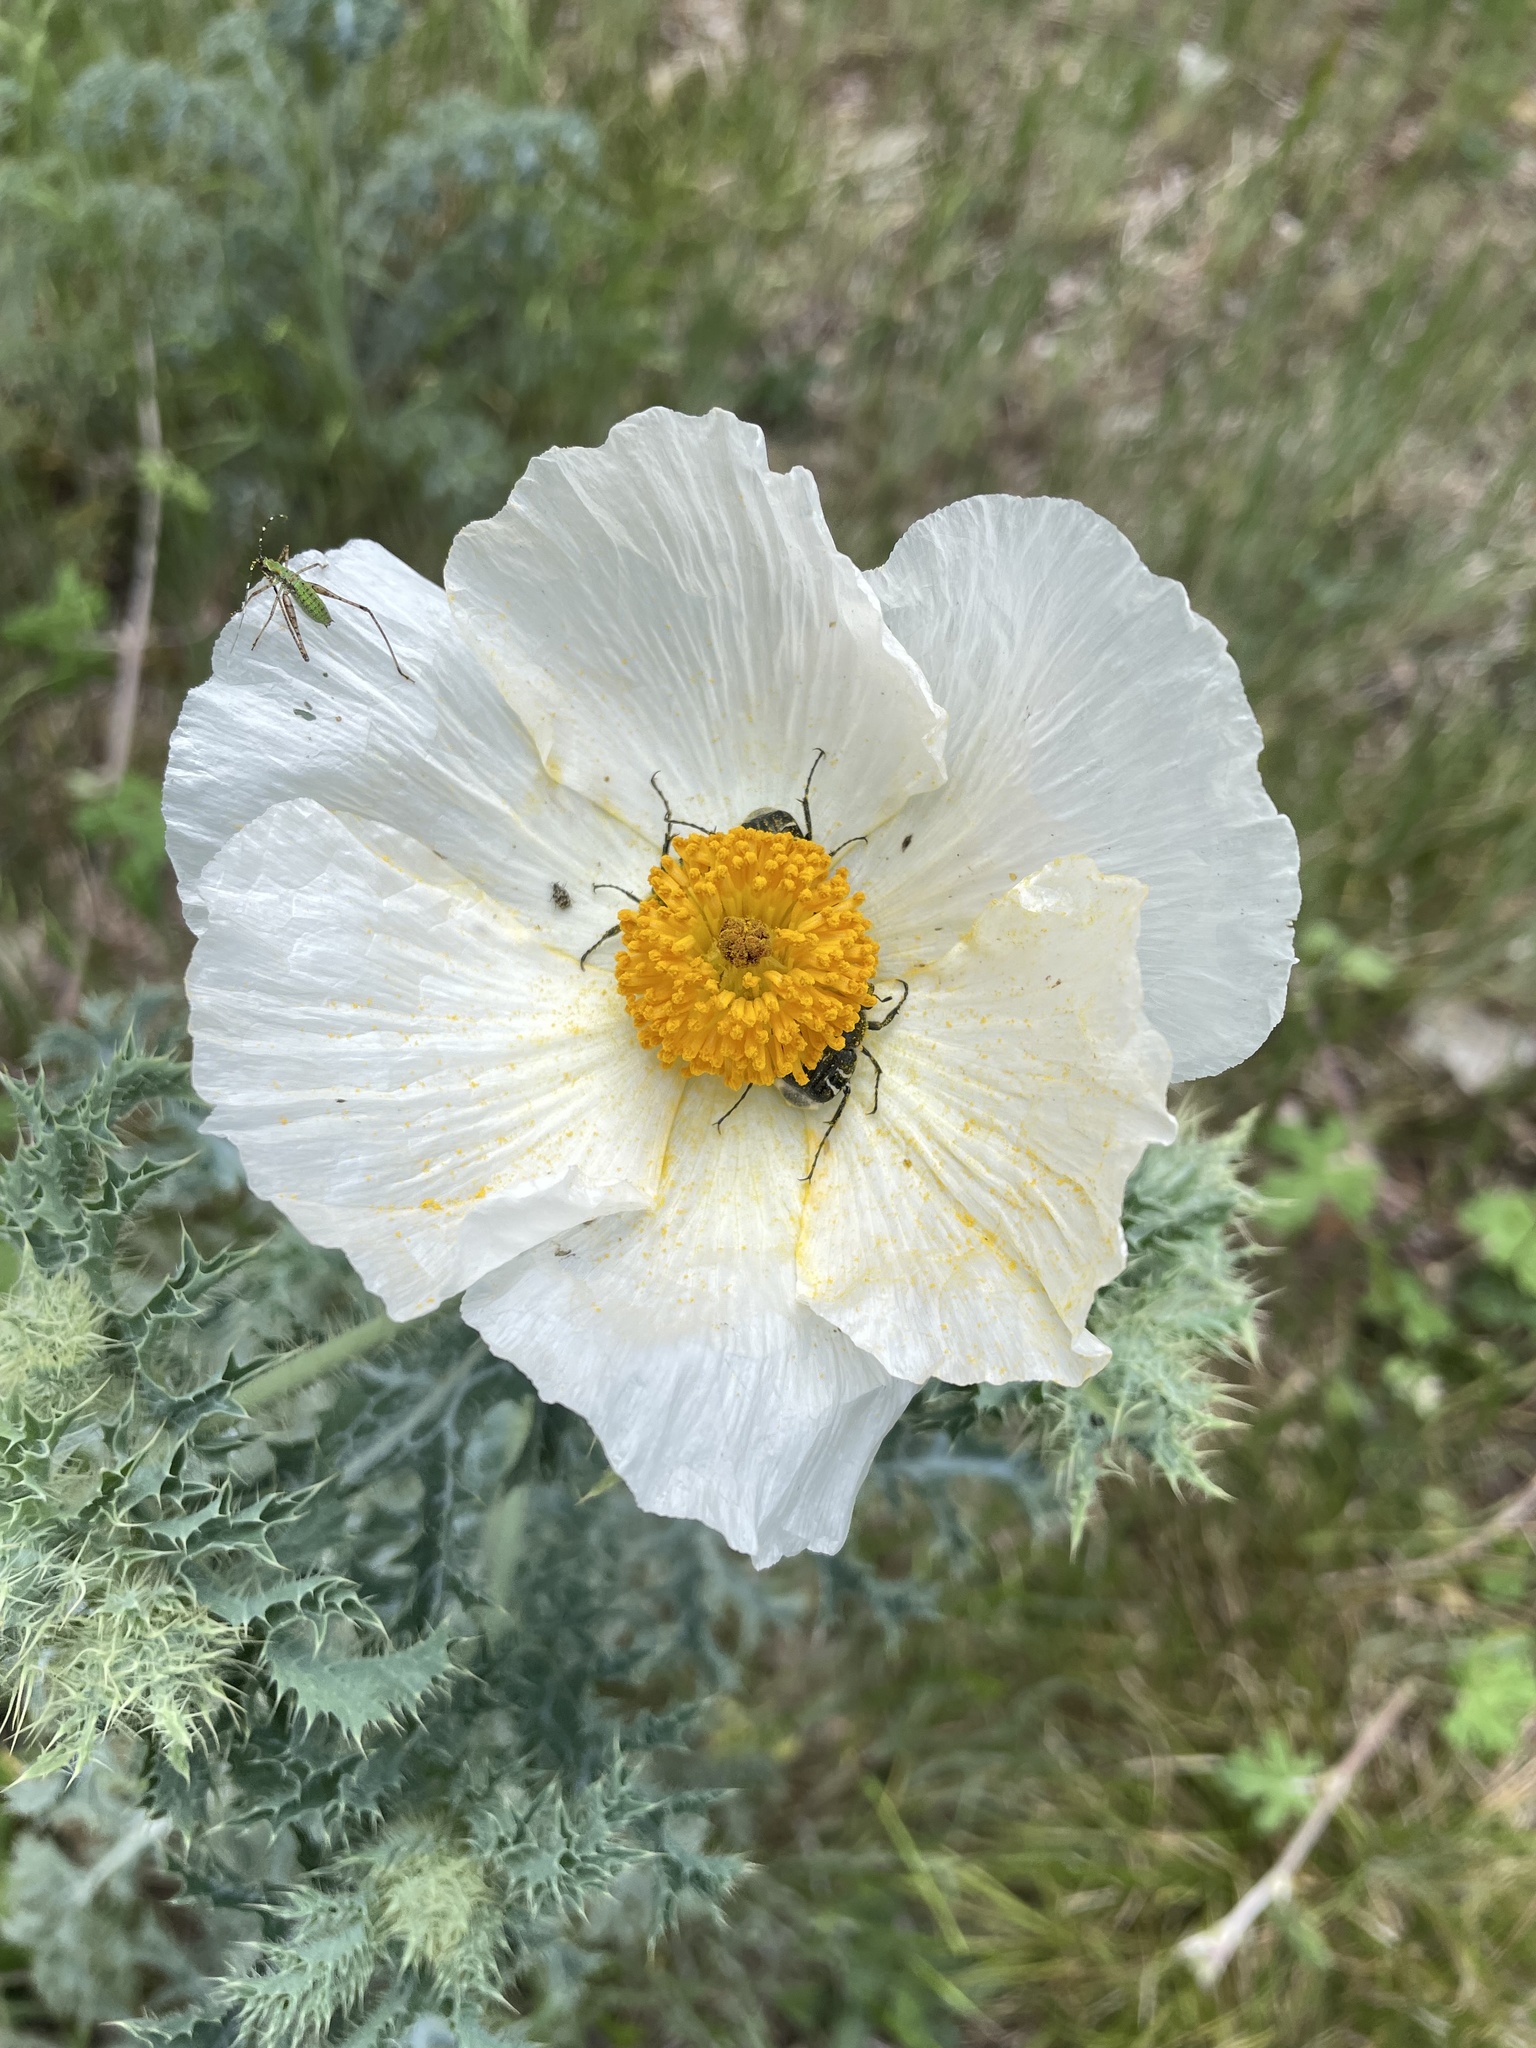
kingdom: Plantae
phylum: Tracheophyta
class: Magnoliopsida
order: Ranunculales
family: Papaveraceae
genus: Argemone
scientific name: Argemone aurantiaca
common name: Texas prickly-poppy
